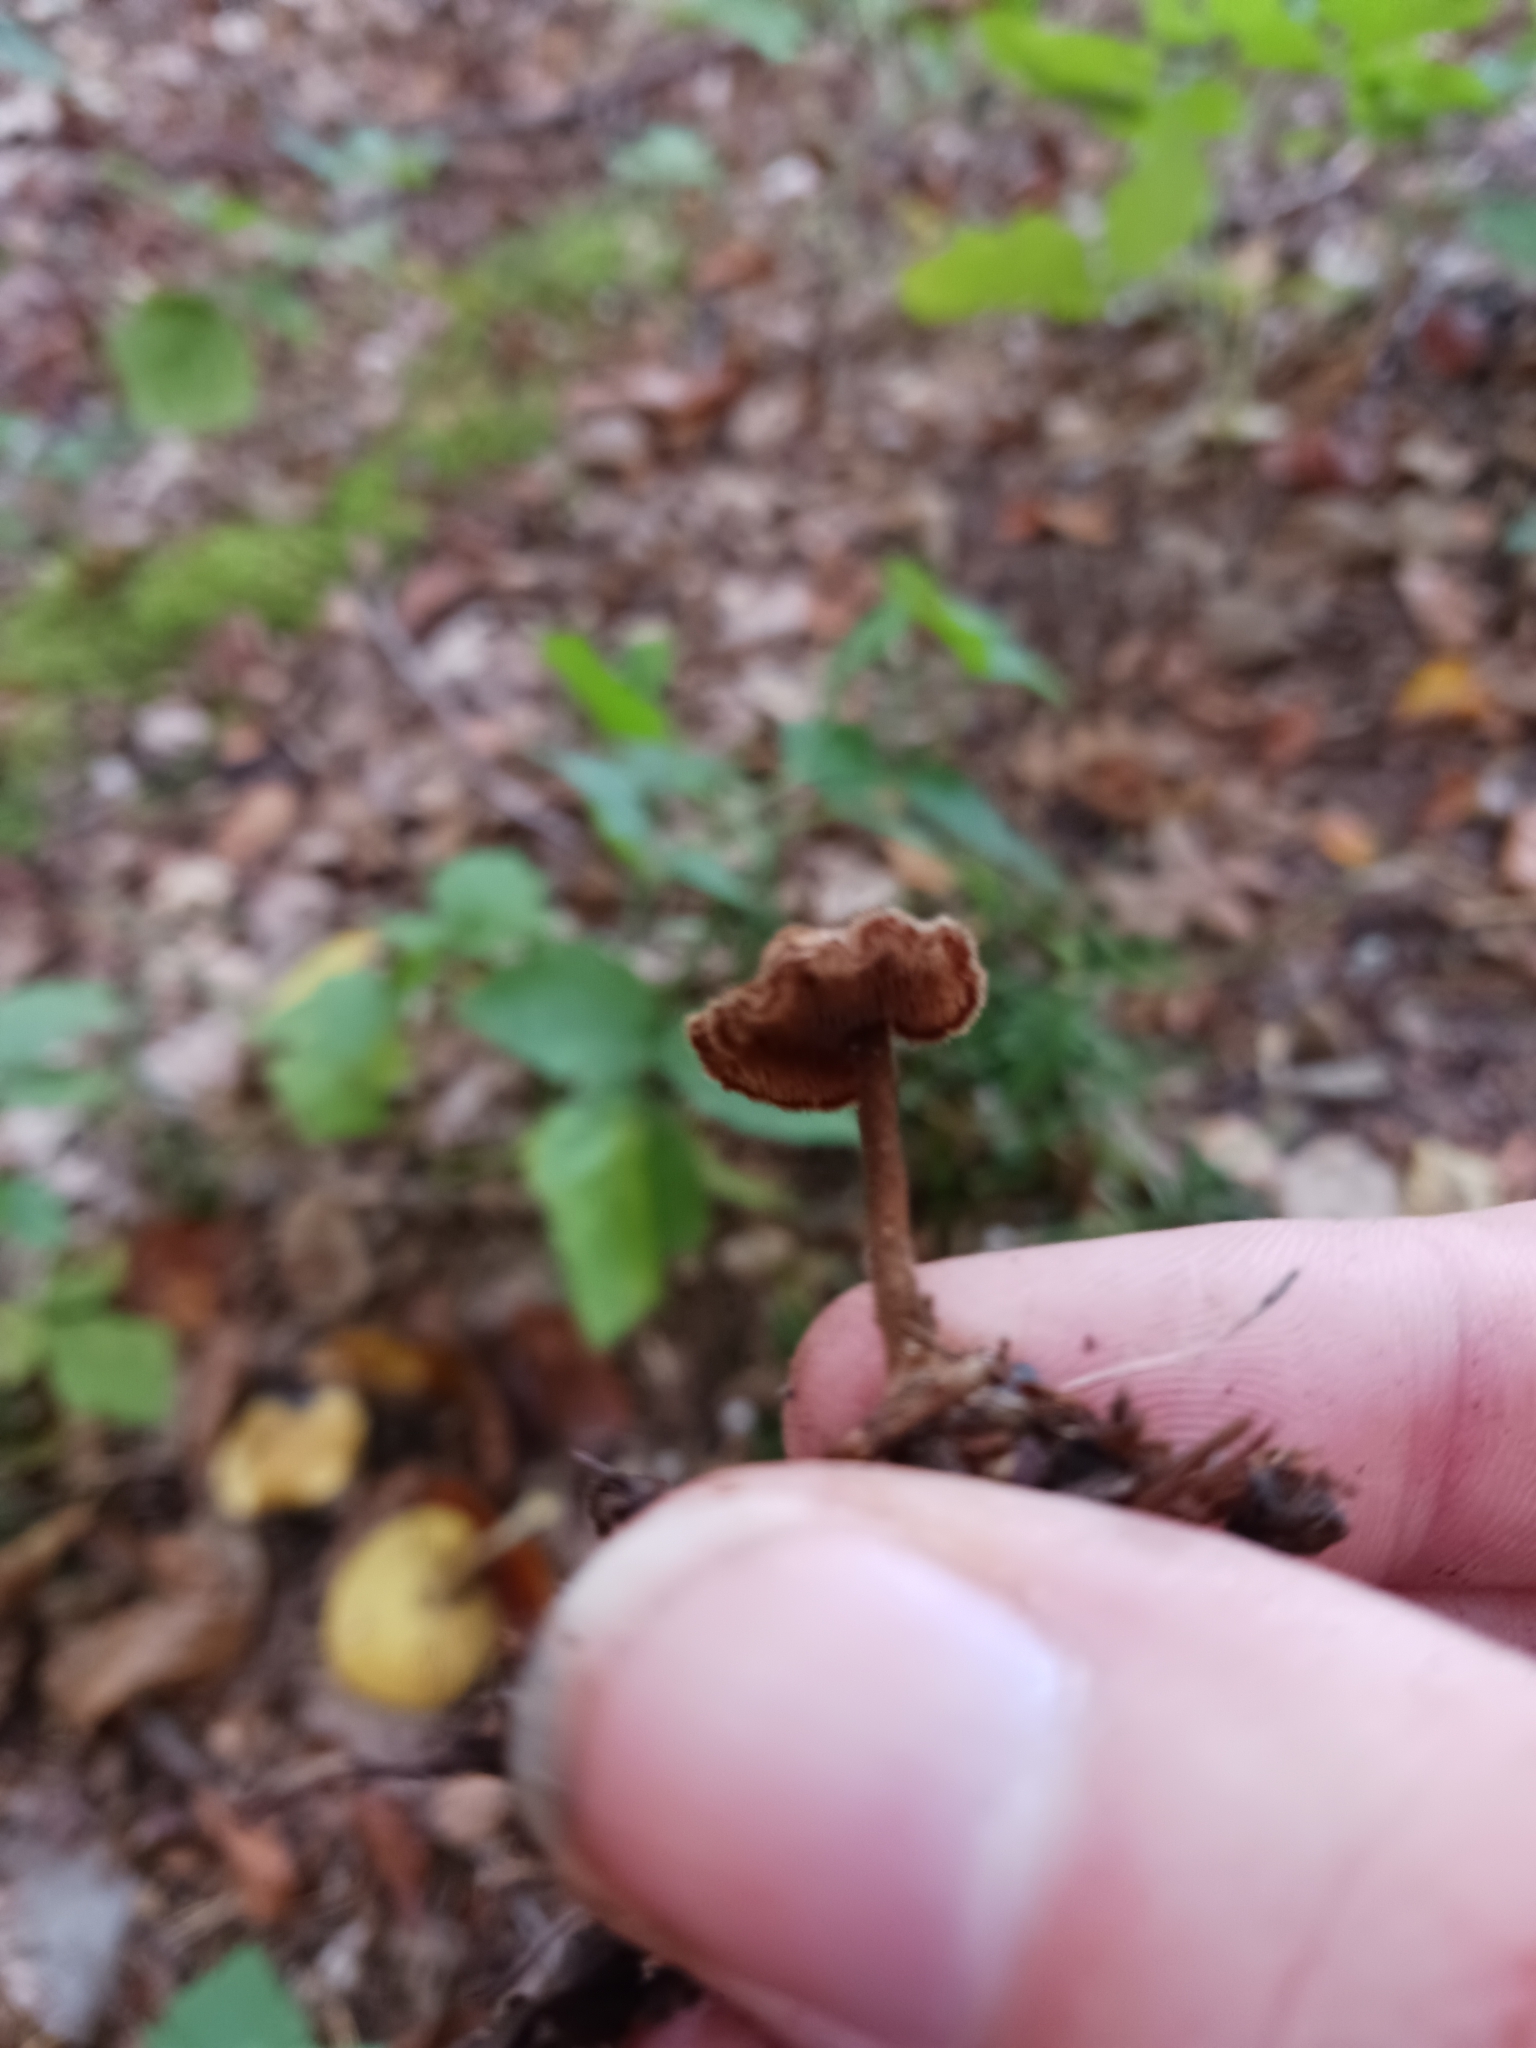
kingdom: Fungi
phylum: Basidiomycota
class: Agaricomycetes
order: Russulales
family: Auriscalpiaceae
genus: Auriscalpium
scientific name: Auriscalpium vulgare
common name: Earpick fungus
